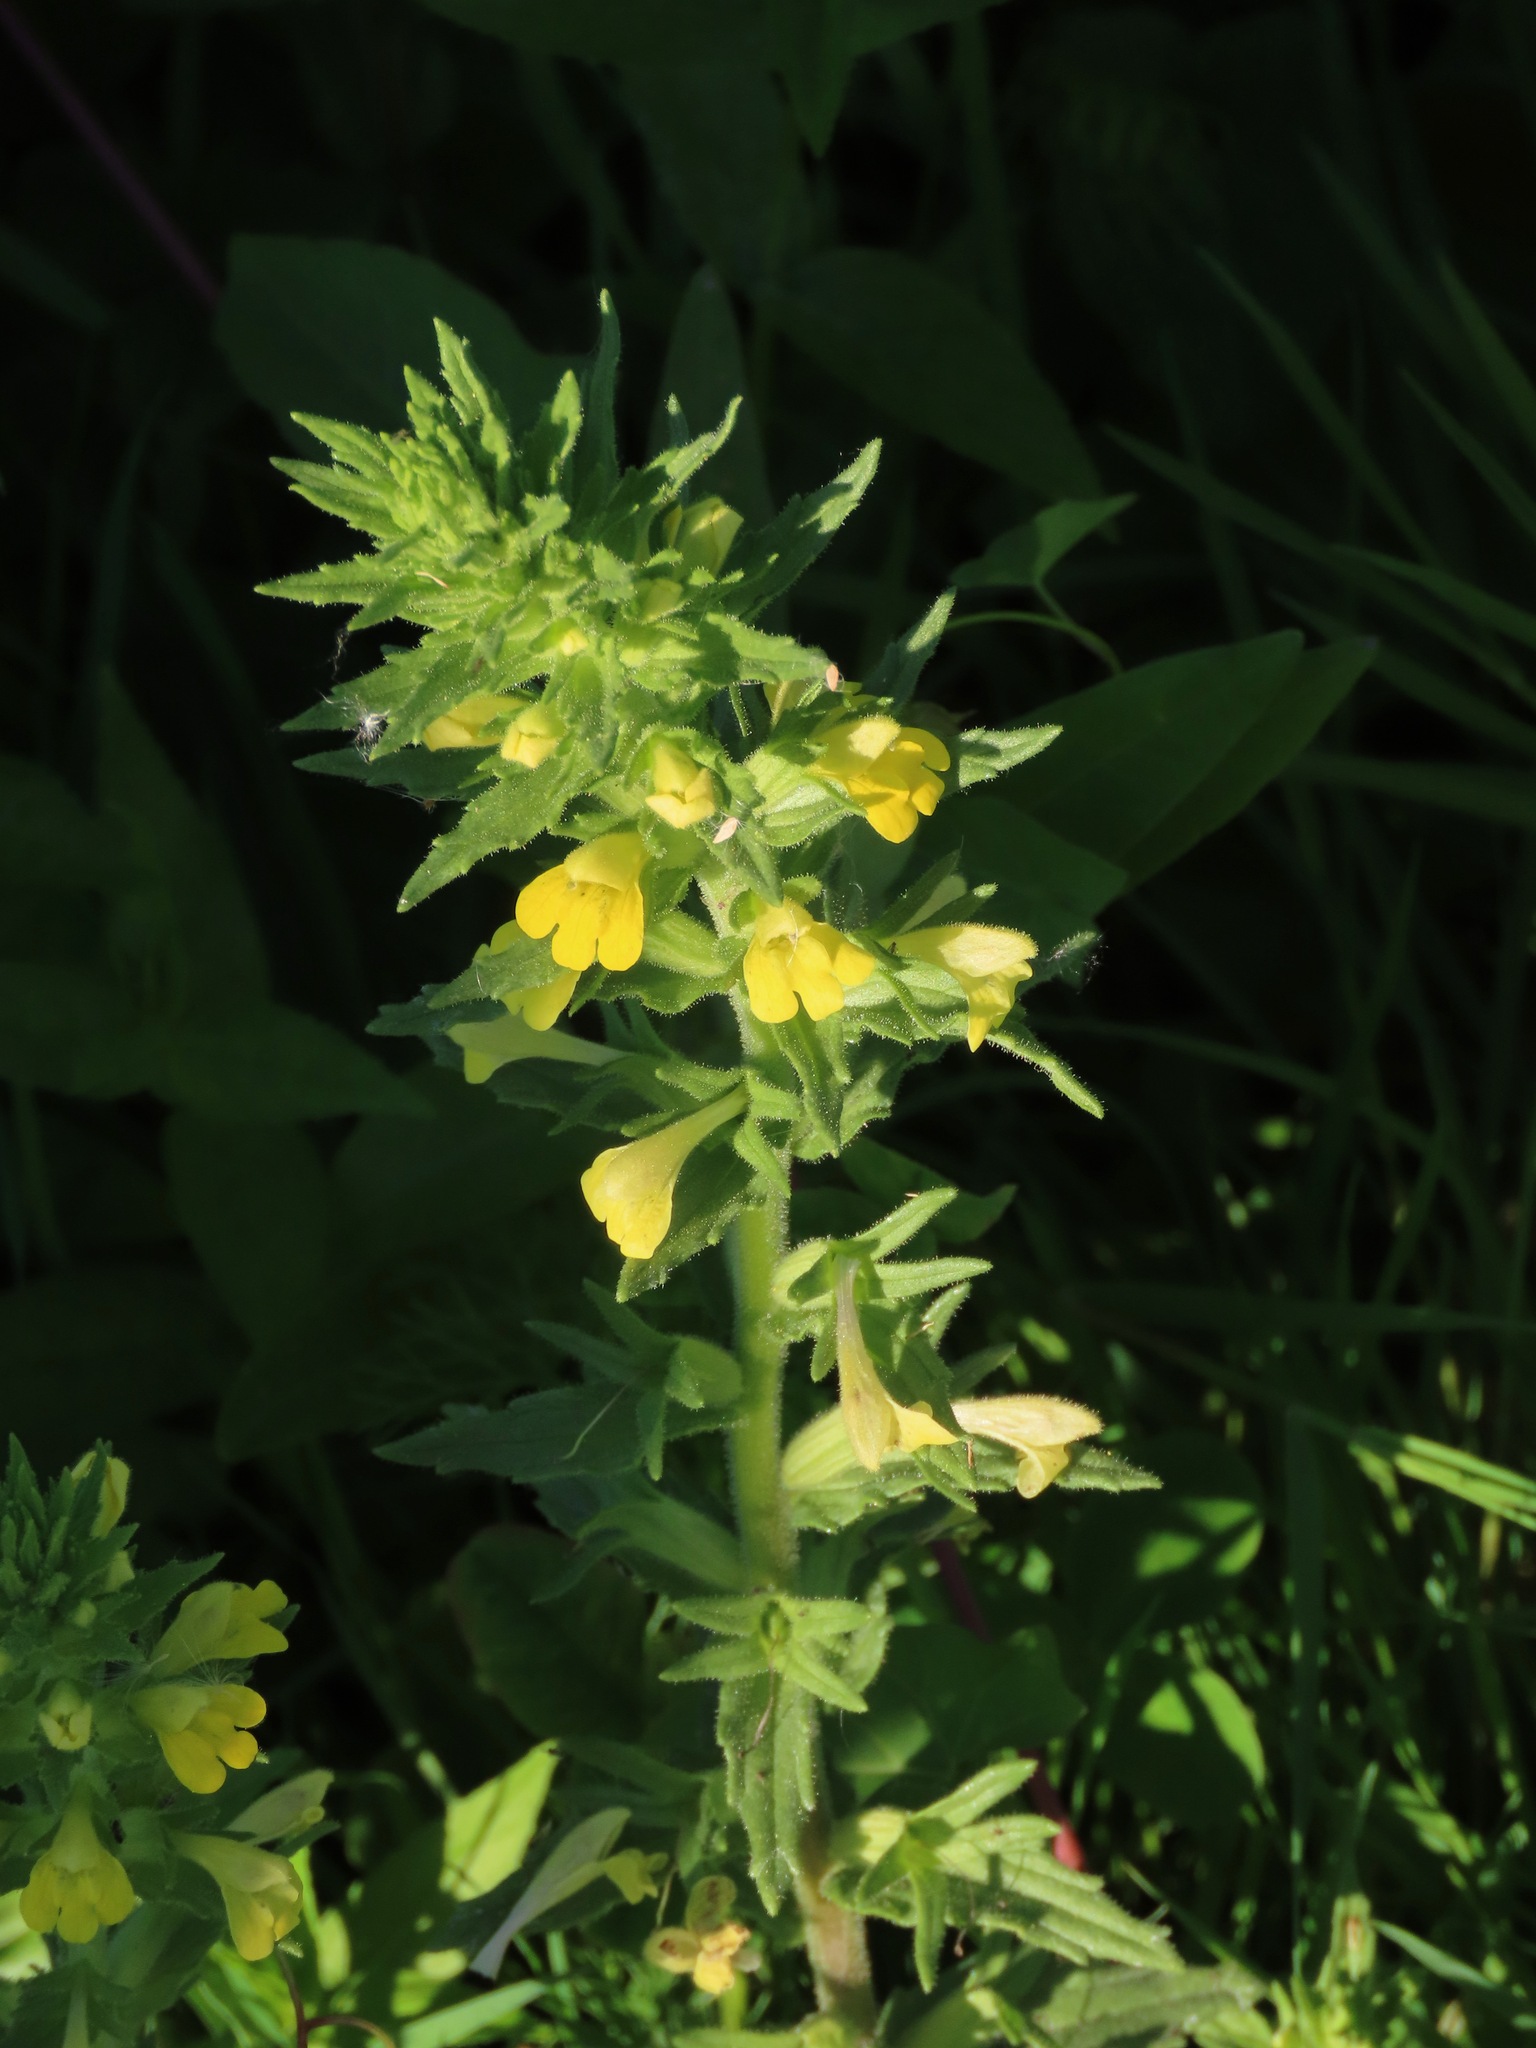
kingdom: Plantae
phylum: Tracheophyta
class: Magnoliopsida
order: Lamiales
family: Orobanchaceae
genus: Bellardia
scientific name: Bellardia viscosa
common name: Sticky parentucellia
